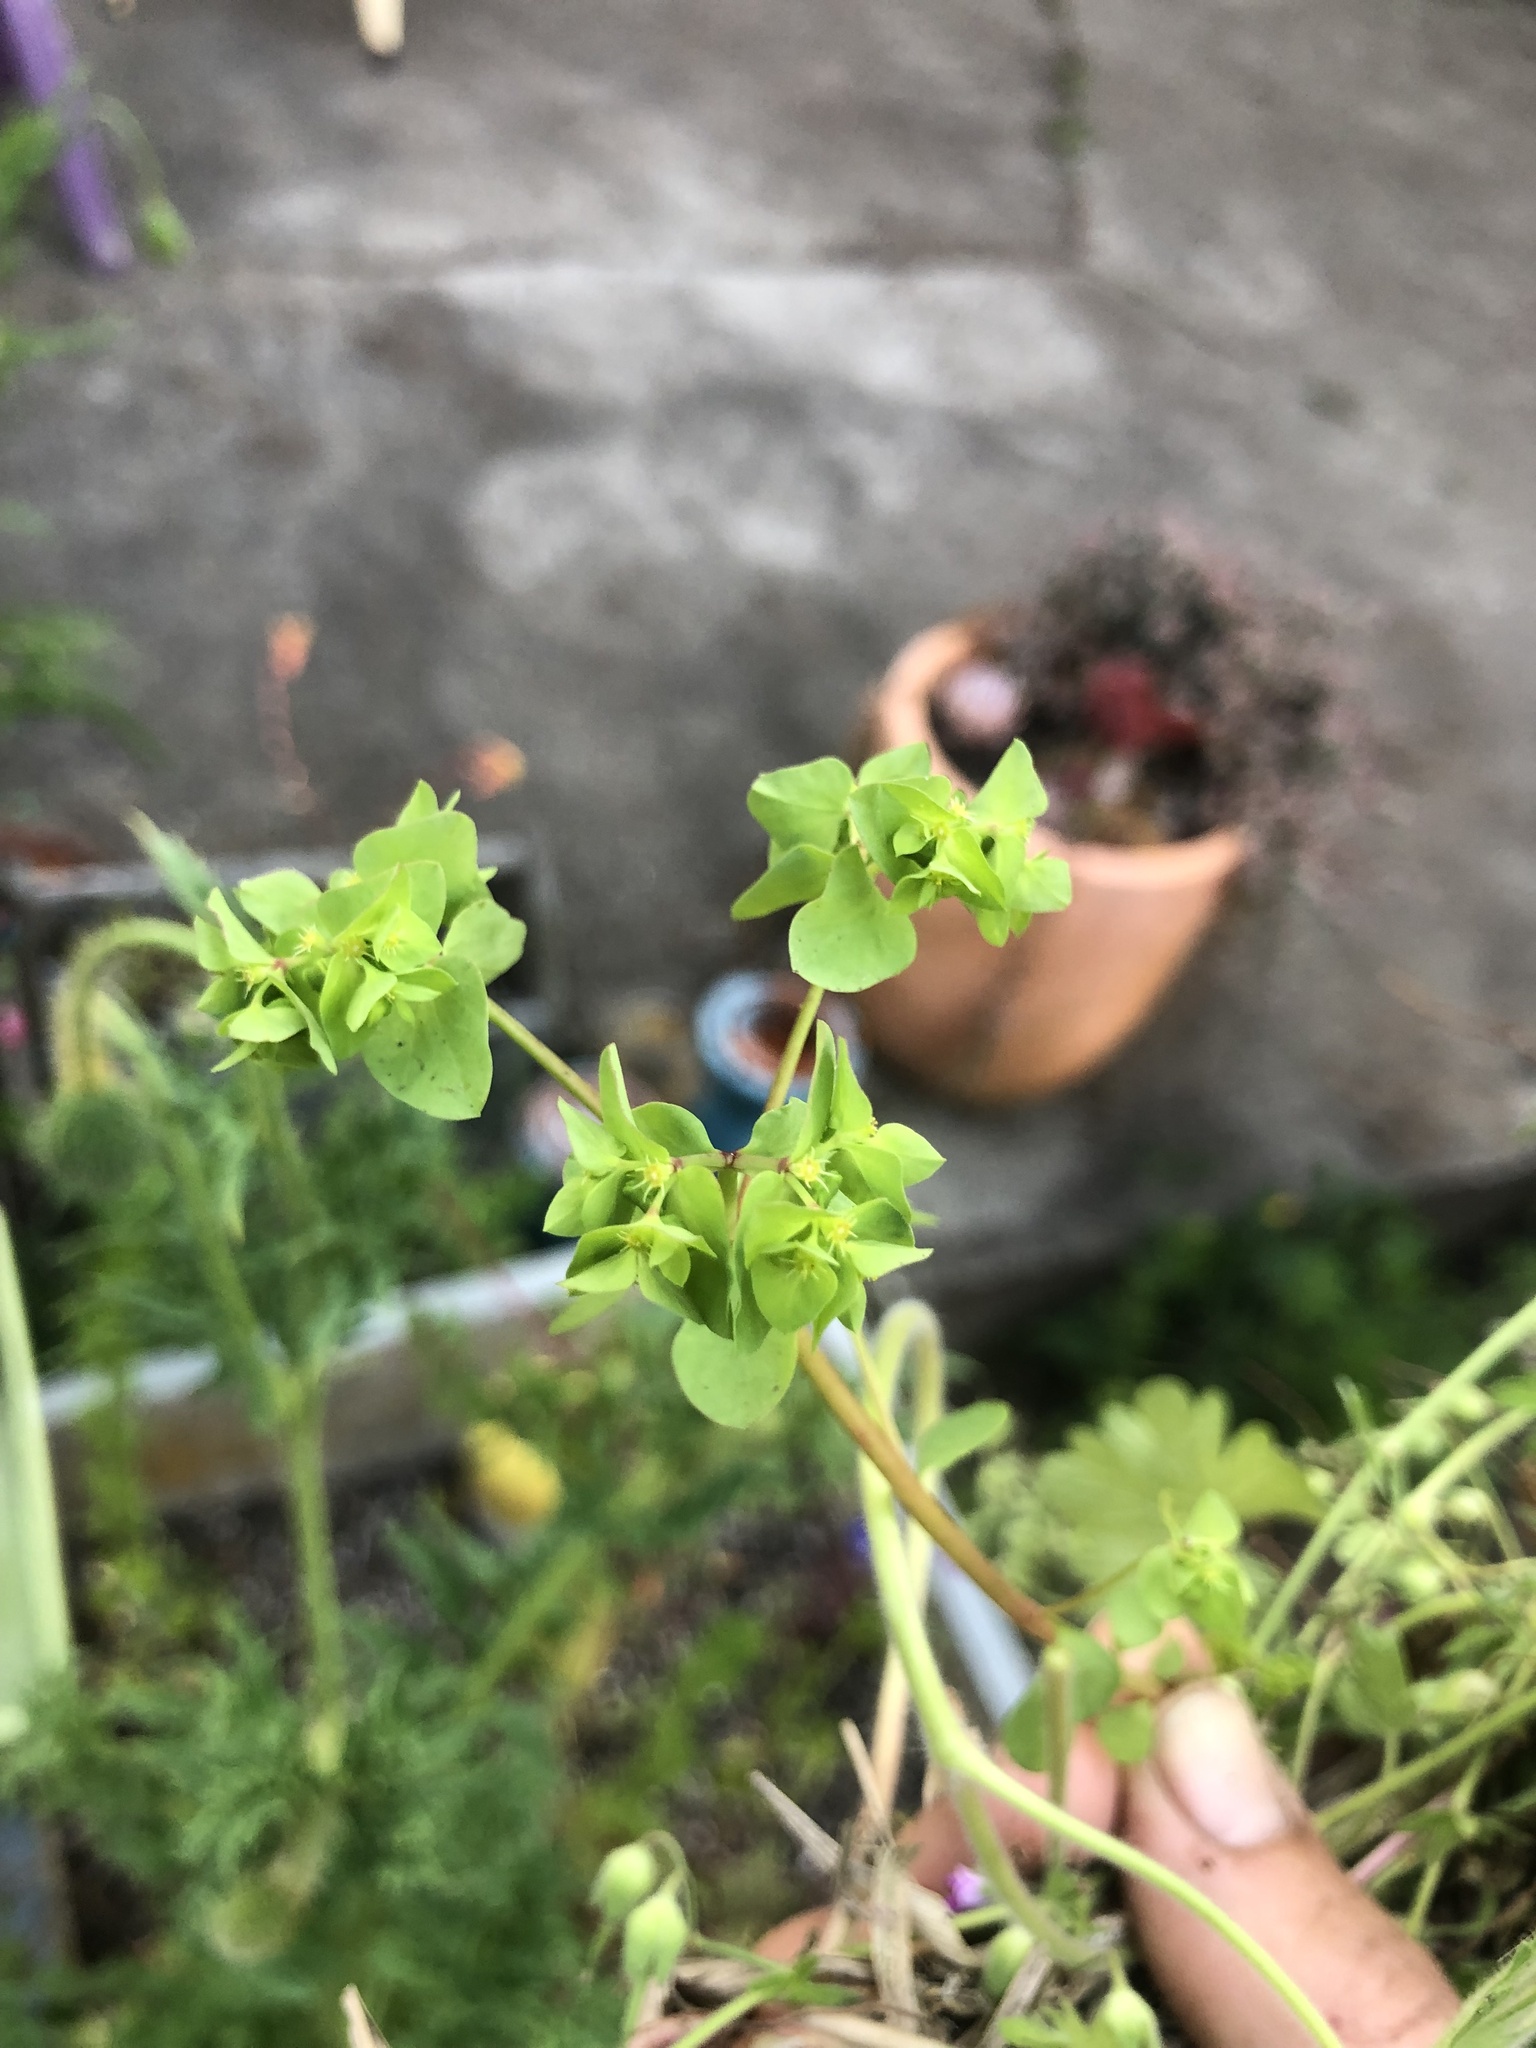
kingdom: Plantae
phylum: Tracheophyta
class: Magnoliopsida
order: Malpighiales
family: Euphorbiaceae
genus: Euphorbia
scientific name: Euphorbia peplus
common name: Petty spurge
